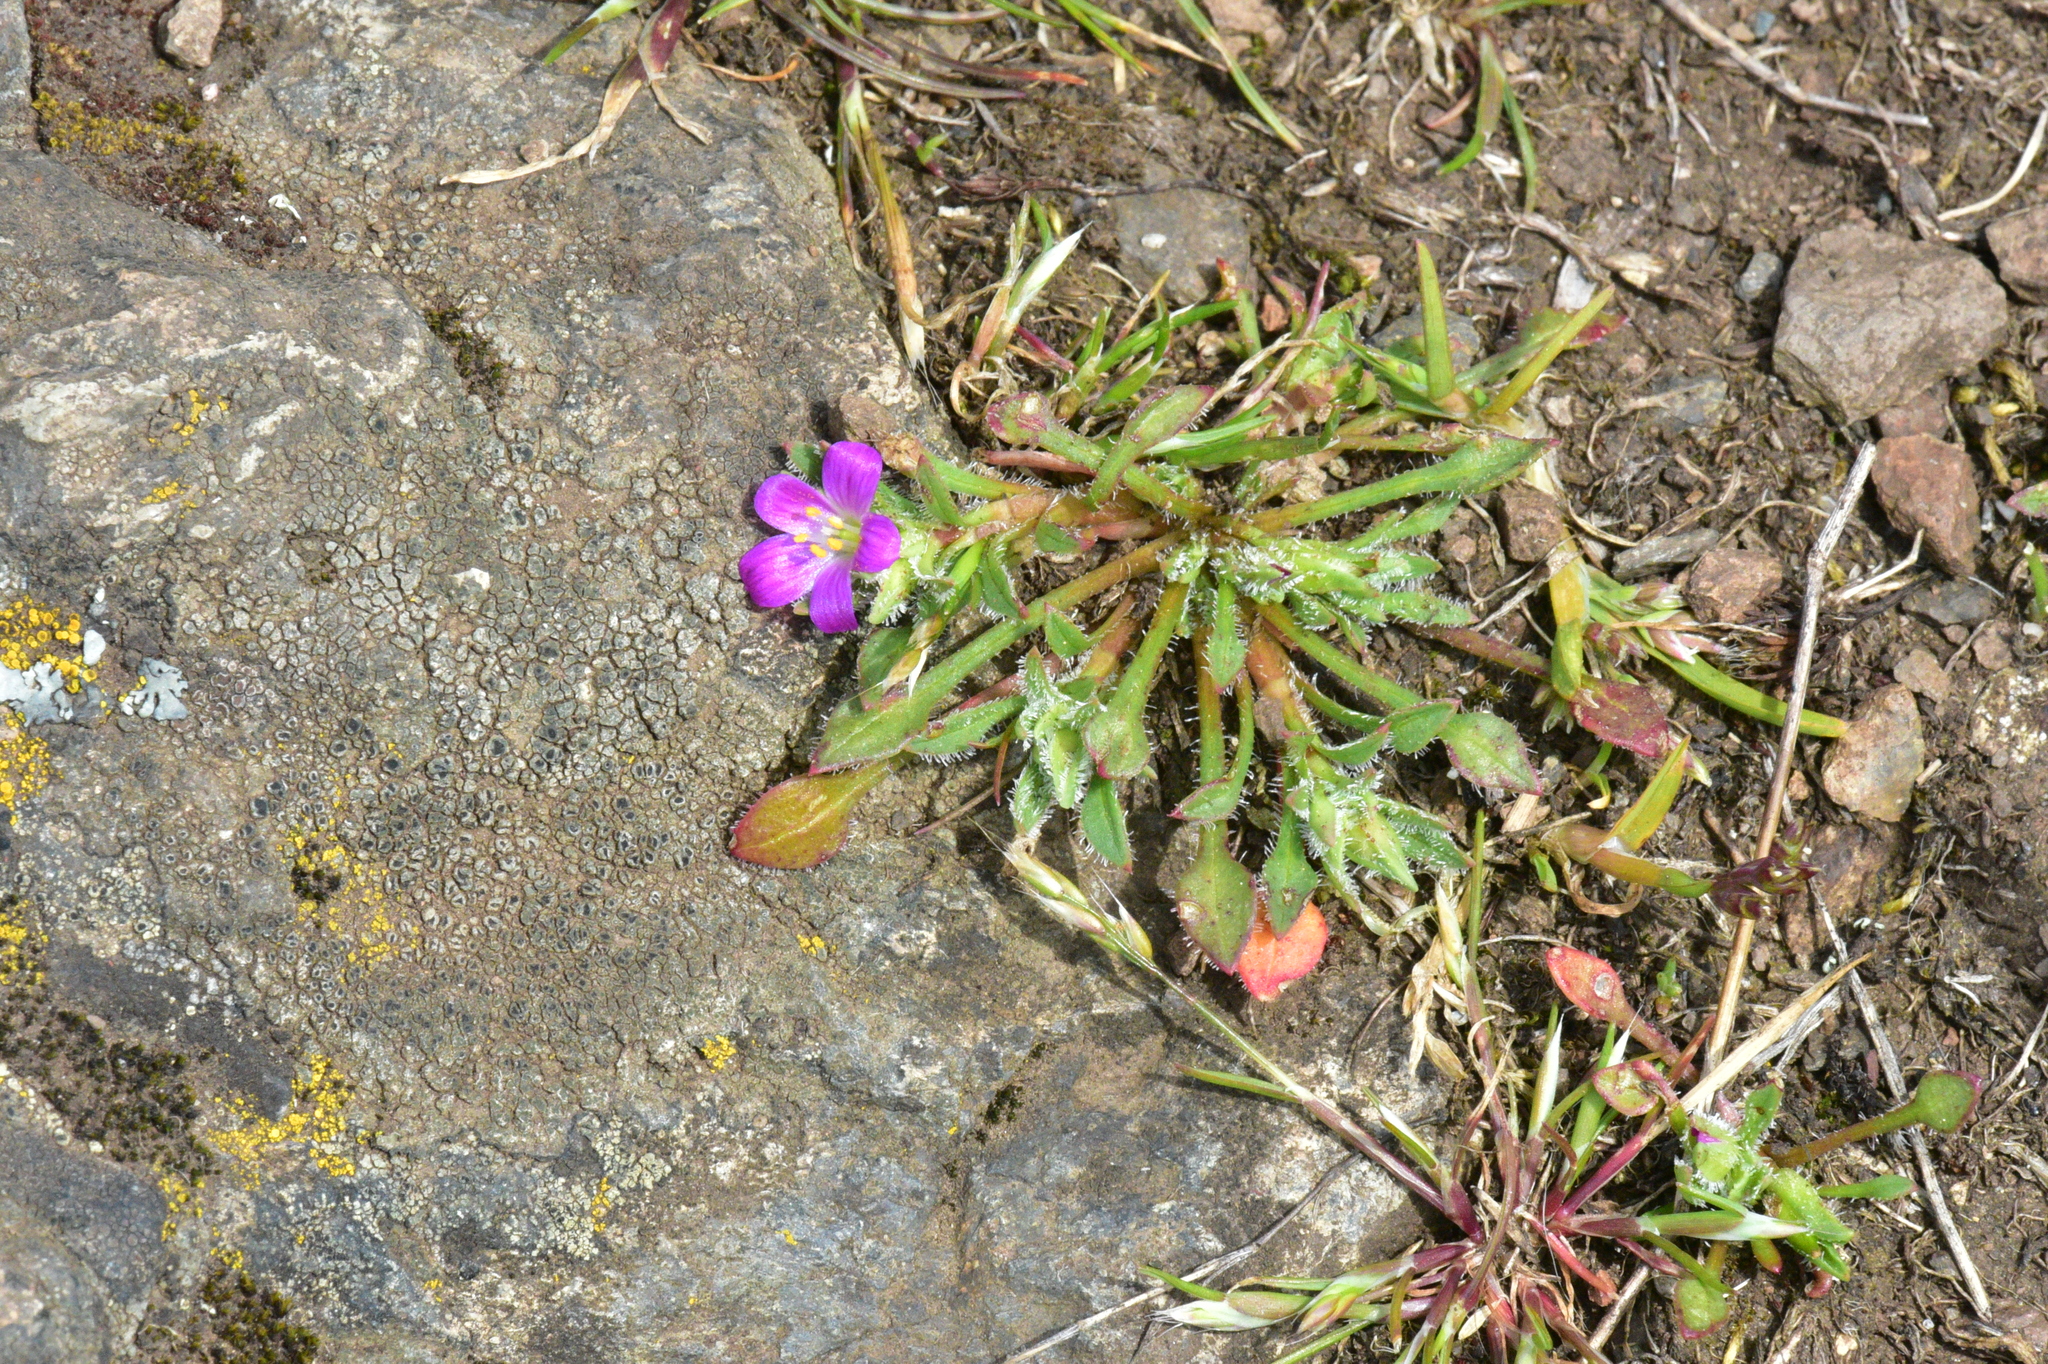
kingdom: Plantae
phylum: Tracheophyta
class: Magnoliopsida
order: Caryophyllales
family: Montiaceae
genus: Calandrinia
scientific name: Calandrinia menziesii
